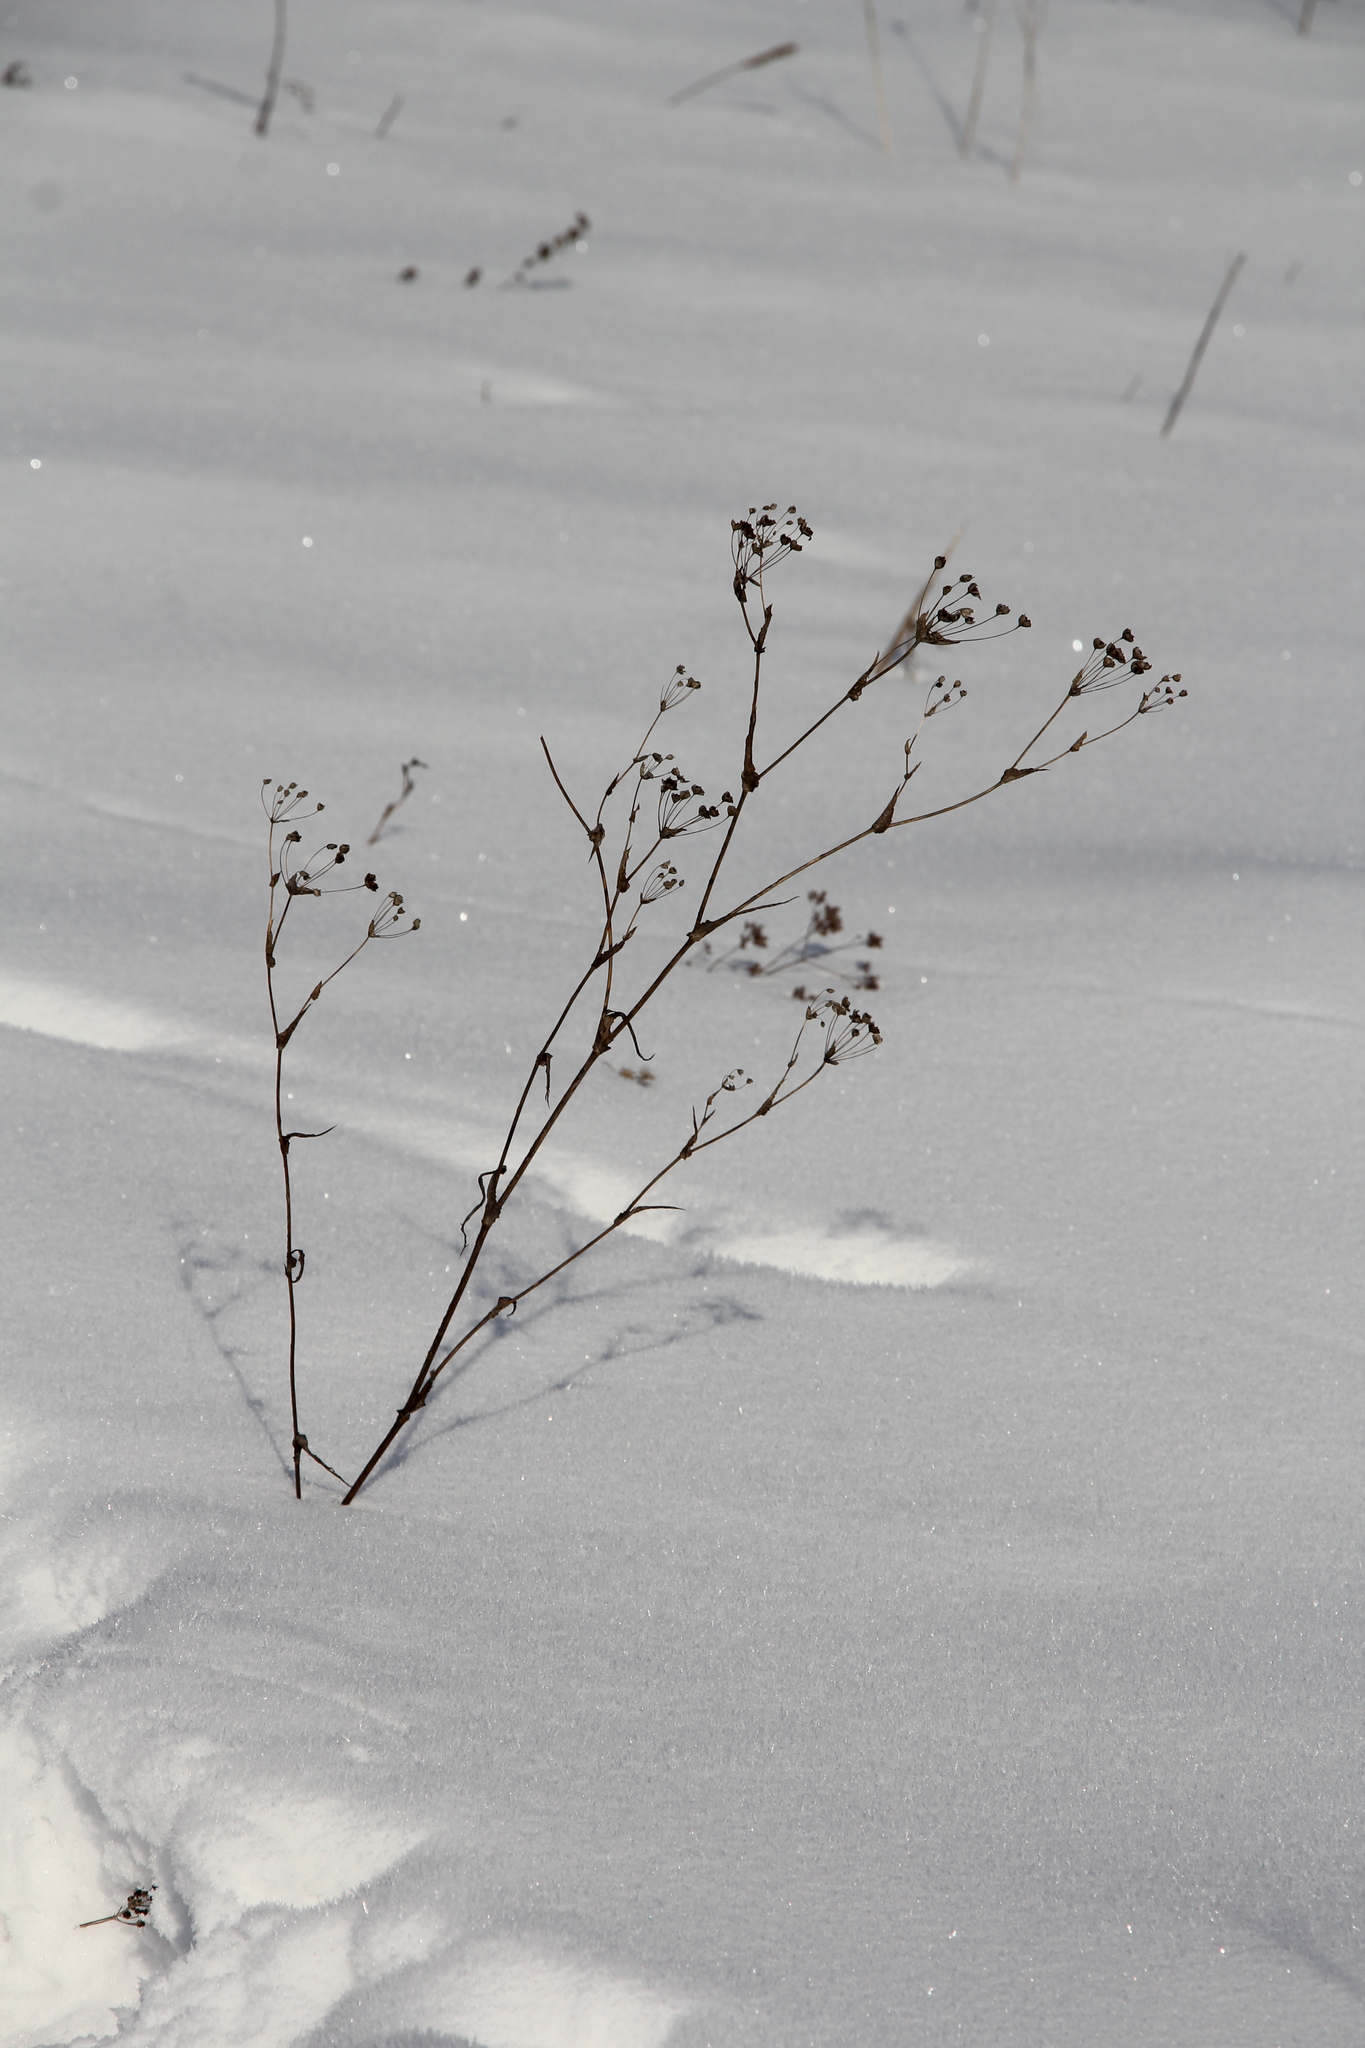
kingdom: Plantae
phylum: Tracheophyta
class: Magnoliopsida
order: Apiales
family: Apiaceae
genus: Bupleurum
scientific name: Bupleurum multinerve
